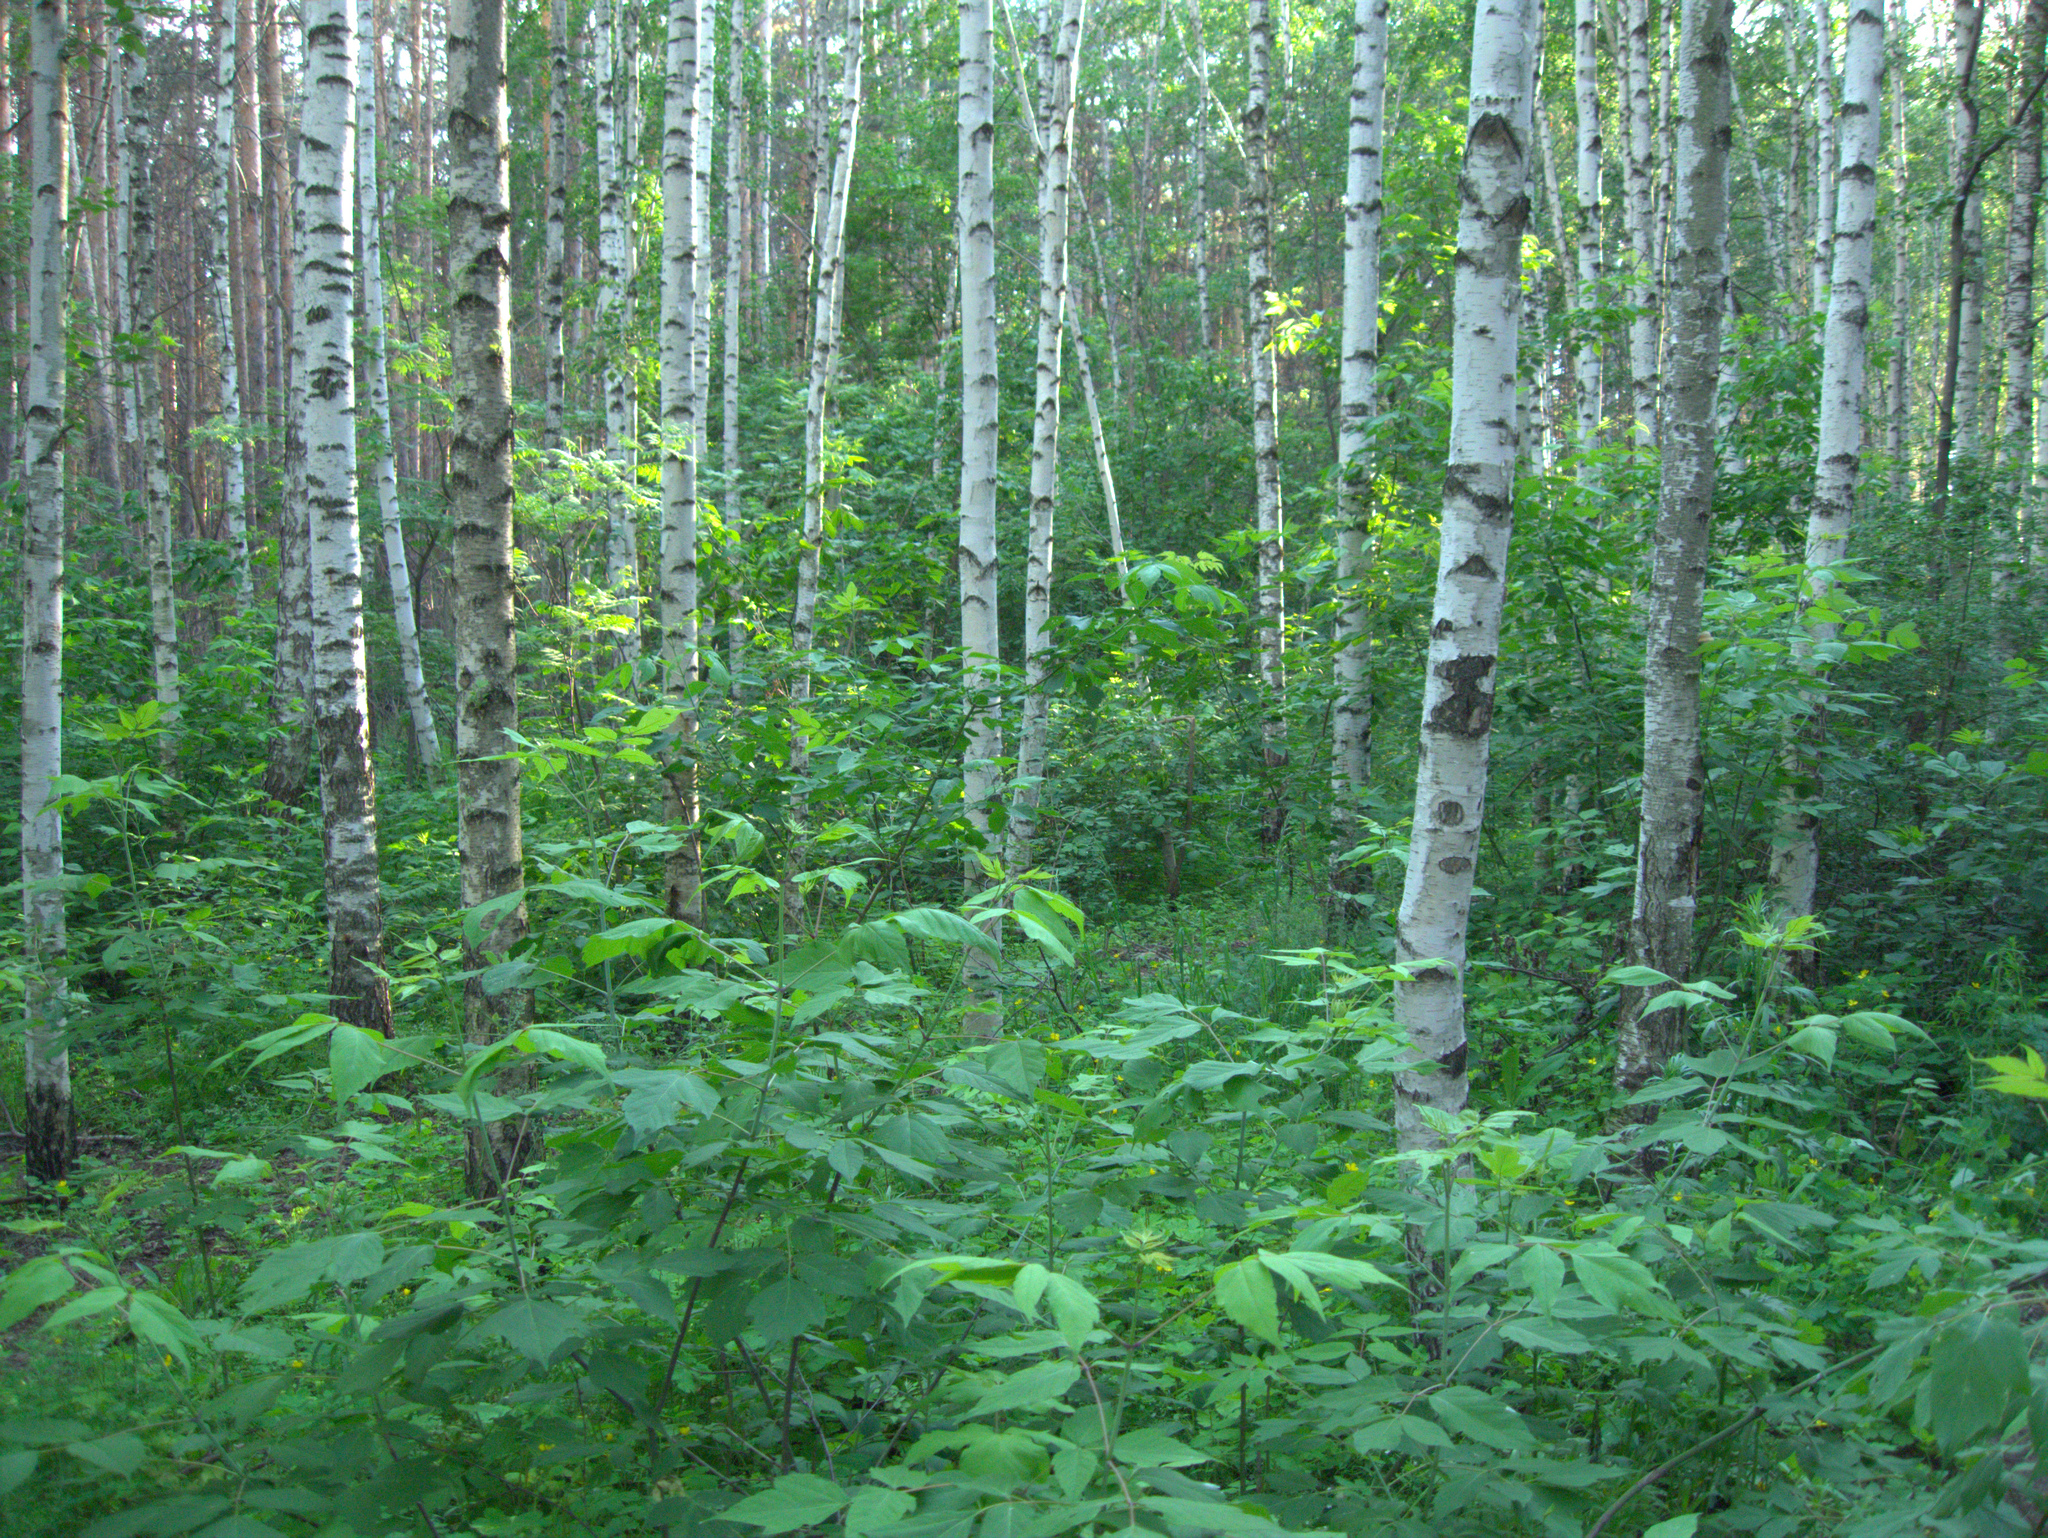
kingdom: Plantae
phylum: Tracheophyta
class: Magnoliopsida
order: Sapindales
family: Sapindaceae
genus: Acer
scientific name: Acer negundo
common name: Ashleaf maple
